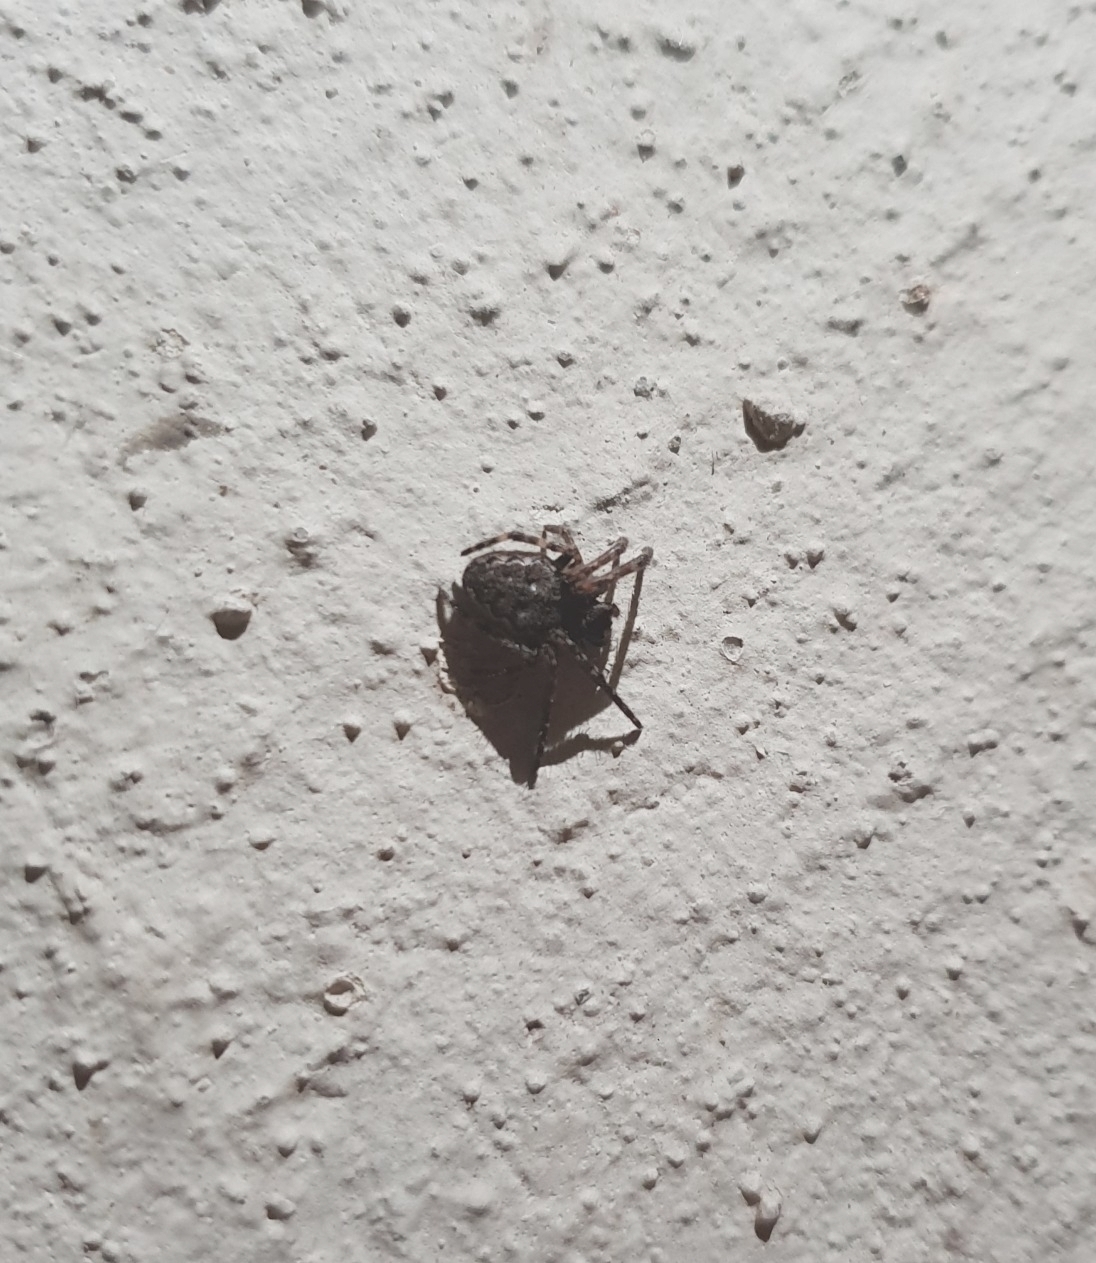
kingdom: Animalia
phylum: Arthropoda
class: Arachnida
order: Araneae
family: Araneidae
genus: Nuctenea
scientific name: Nuctenea umbratica
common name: Toad spider
